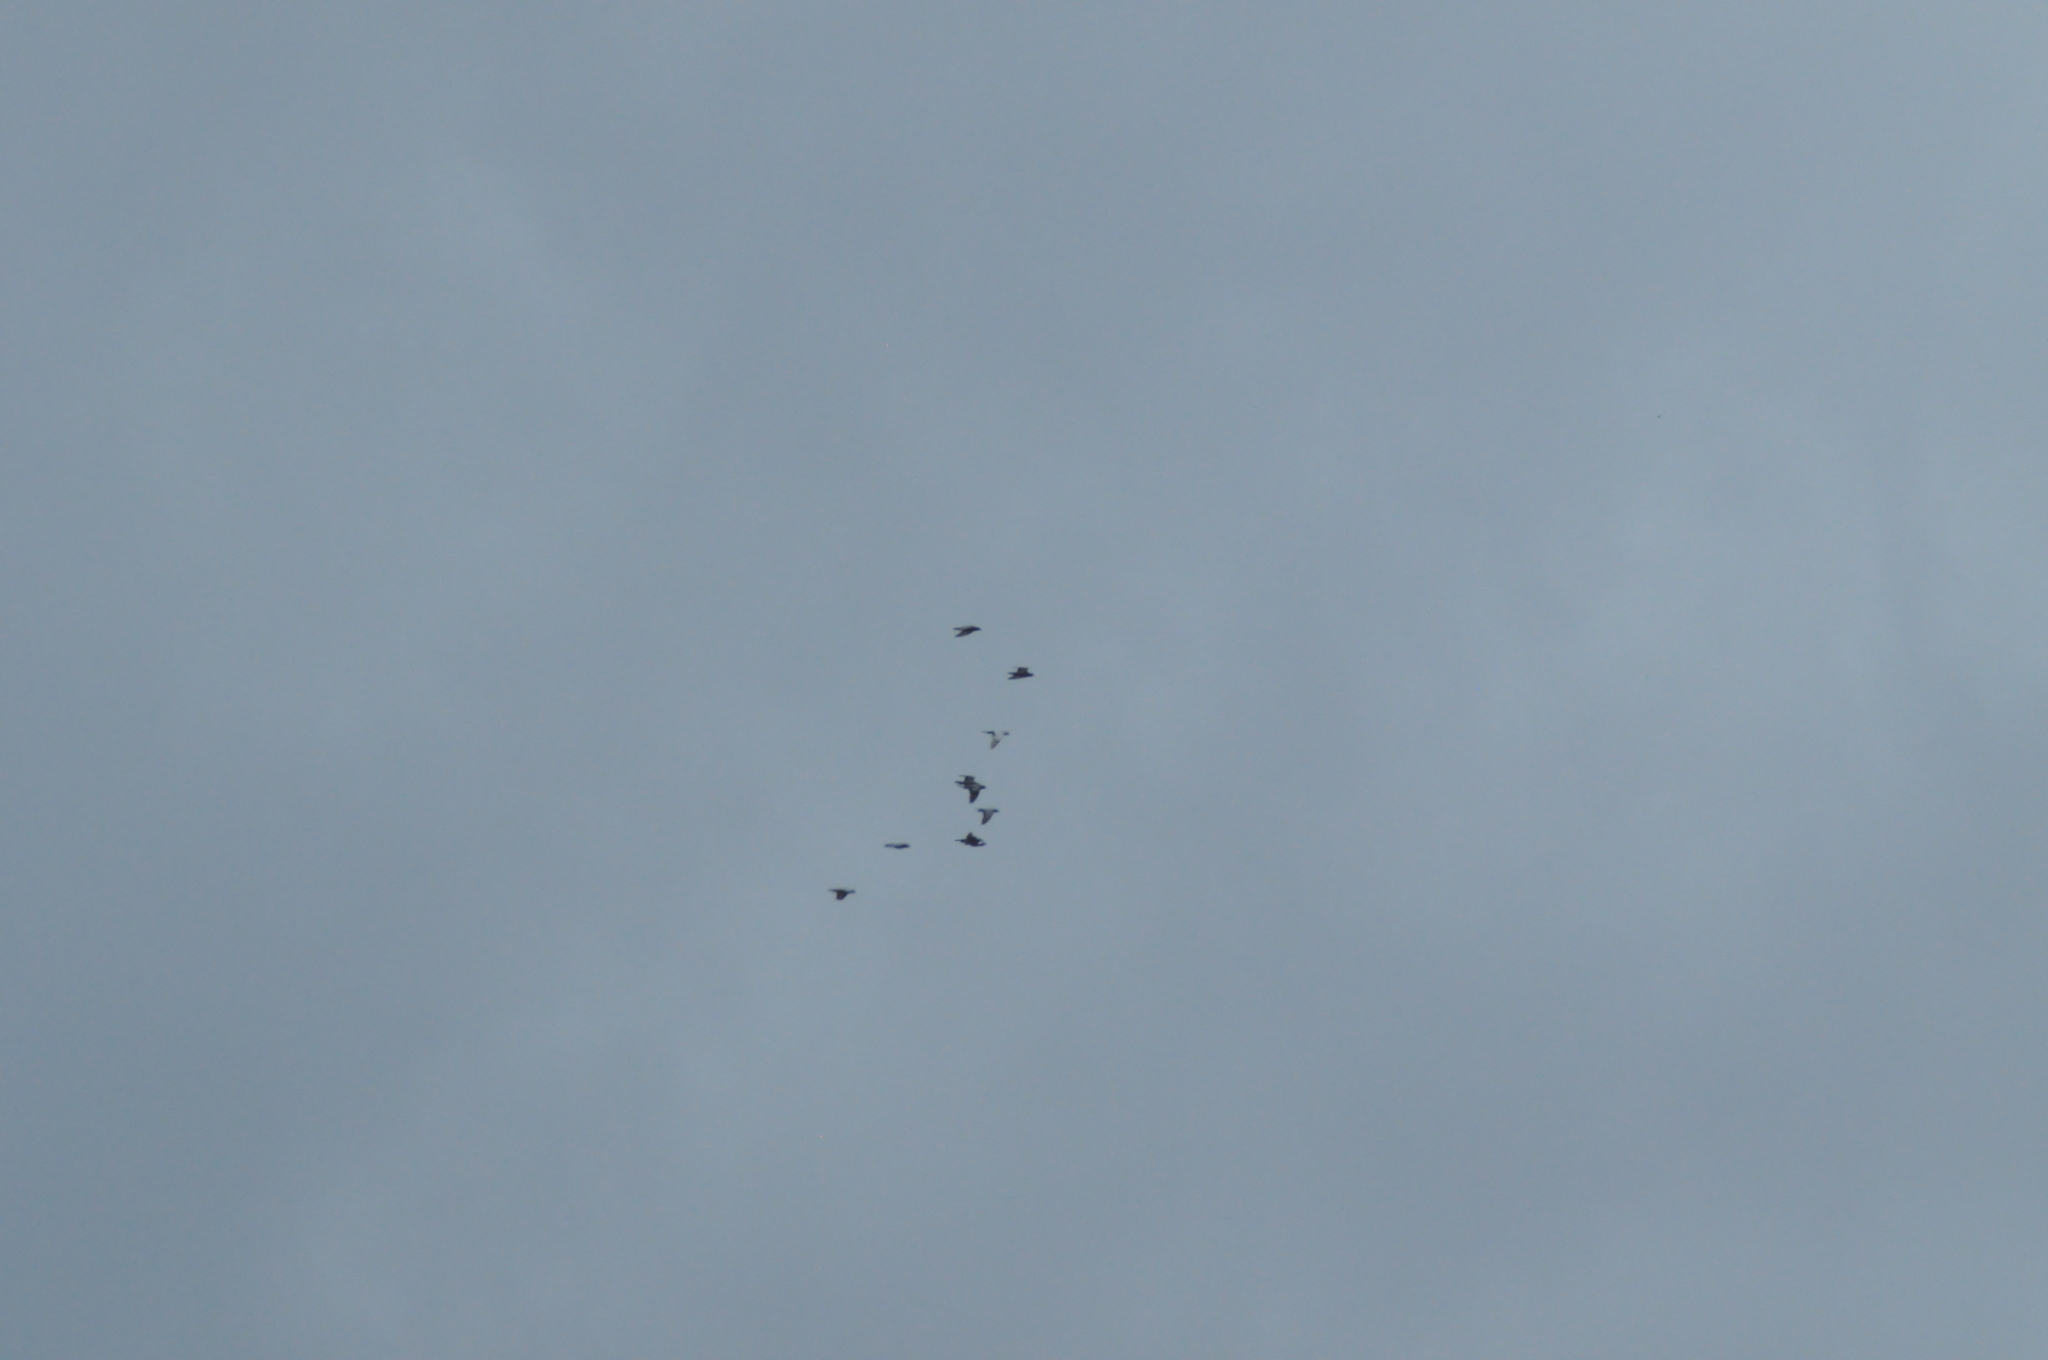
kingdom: Animalia
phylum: Chordata
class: Aves
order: Columbiformes
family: Columbidae
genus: Columba
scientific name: Columba livia
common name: Rock pigeon
